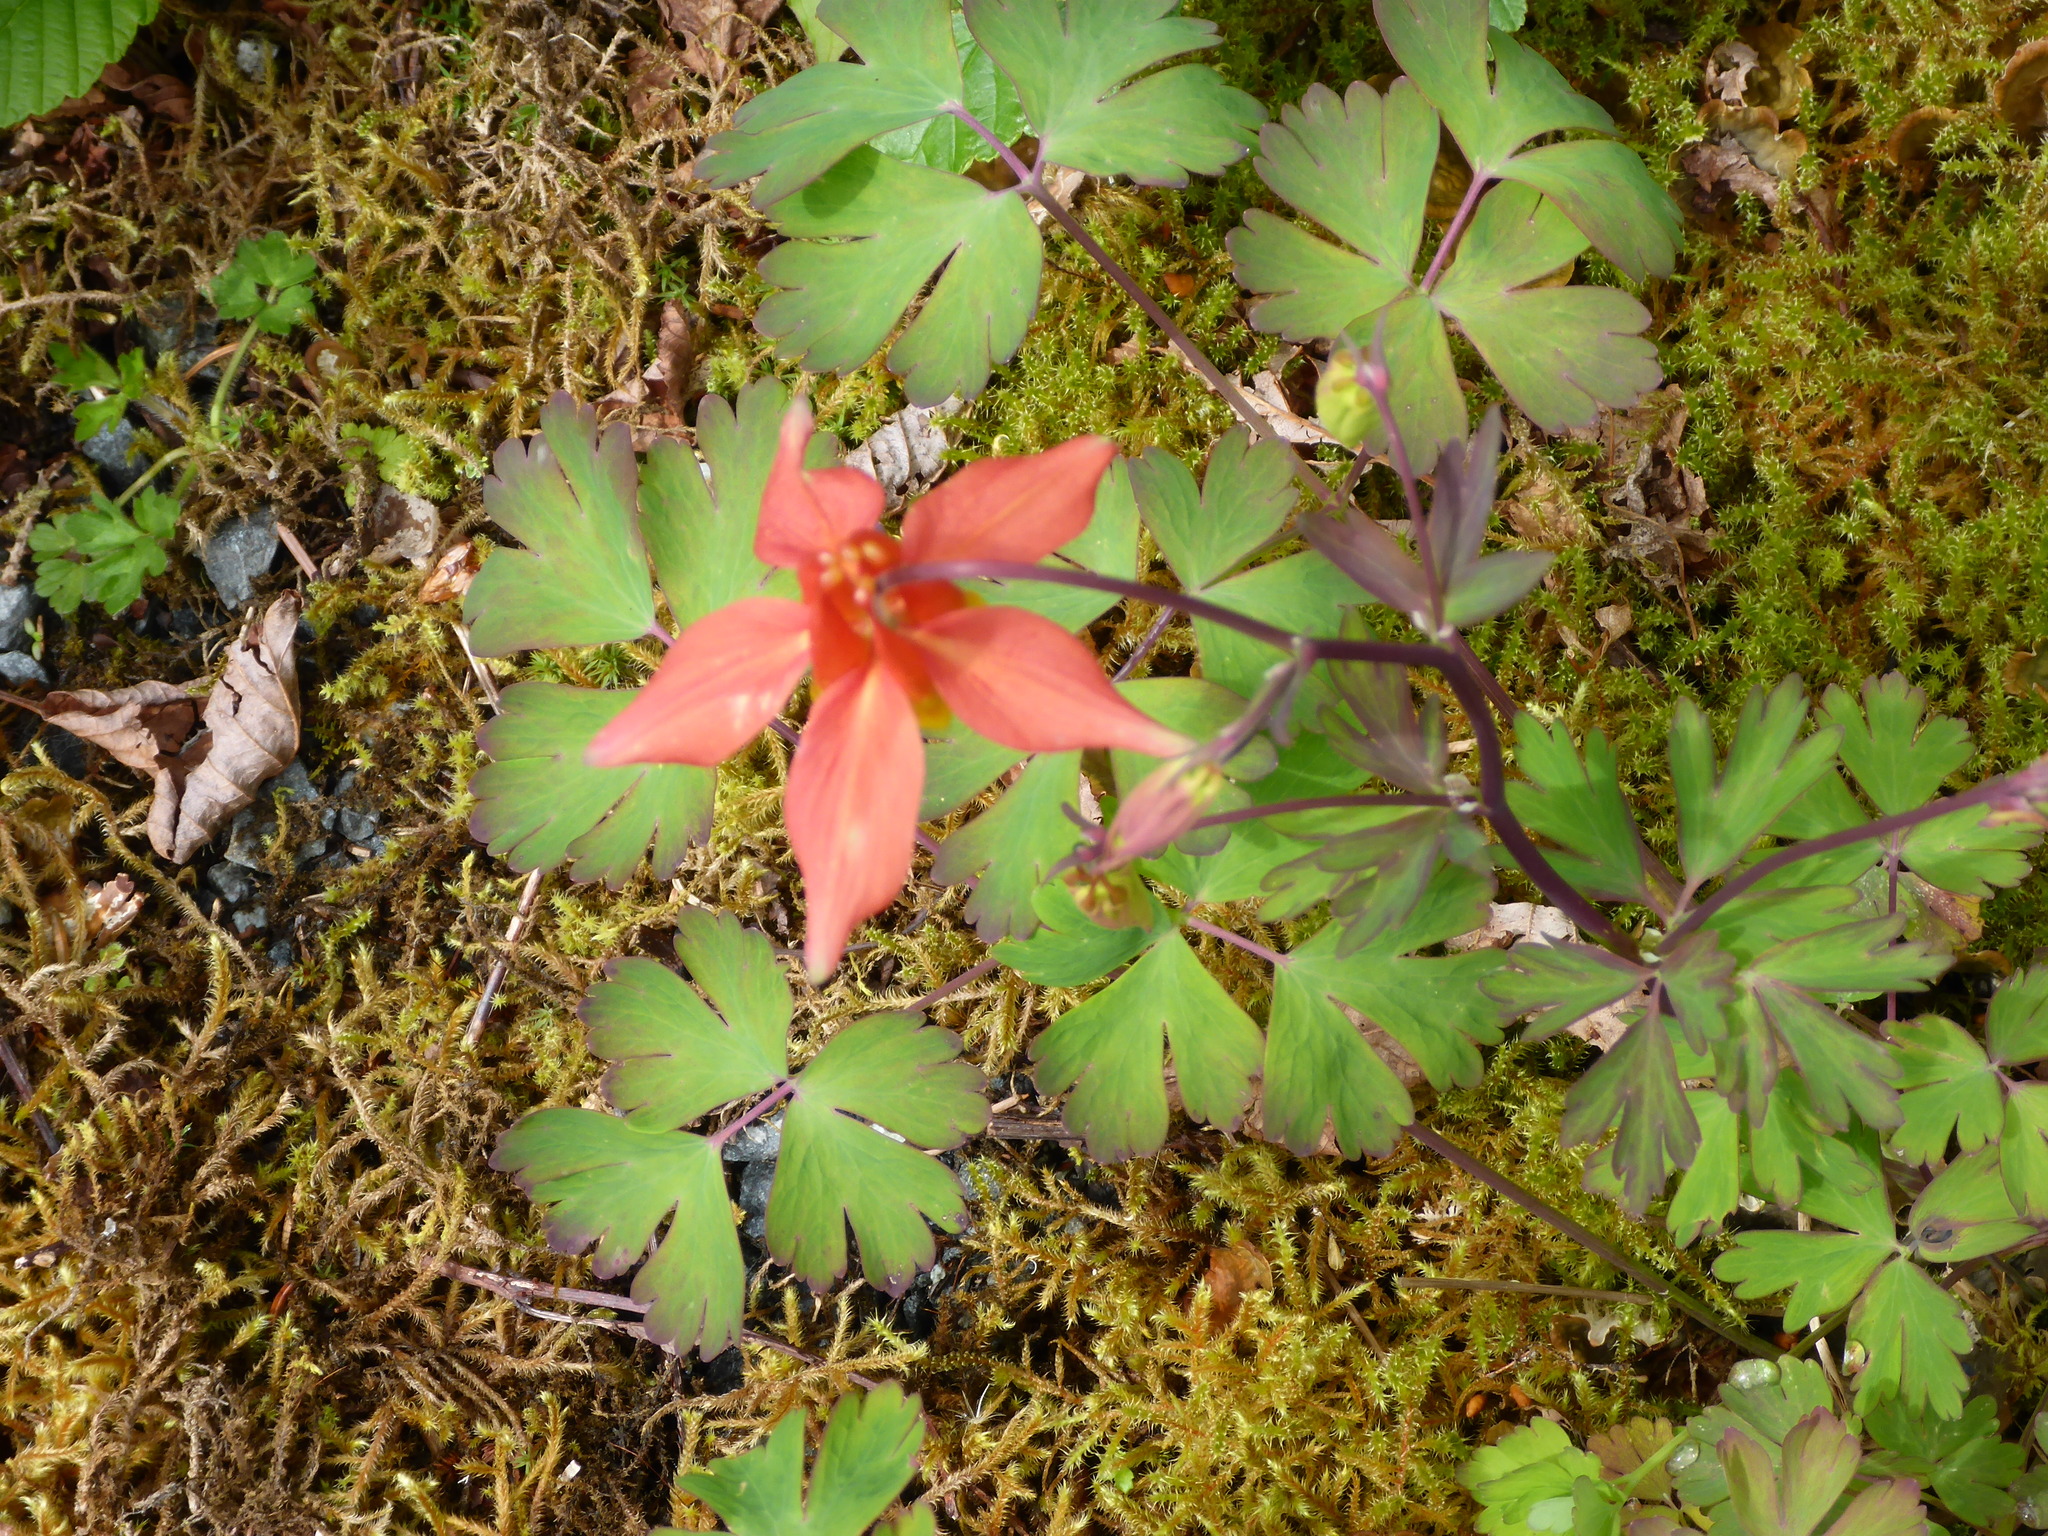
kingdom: Plantae
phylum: Tracheophyta
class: Magnoliopsida
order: Ranunculales
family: Ranunculaceae
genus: Aquilegia
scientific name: Aquilegia formosa
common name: Sitka columbine
